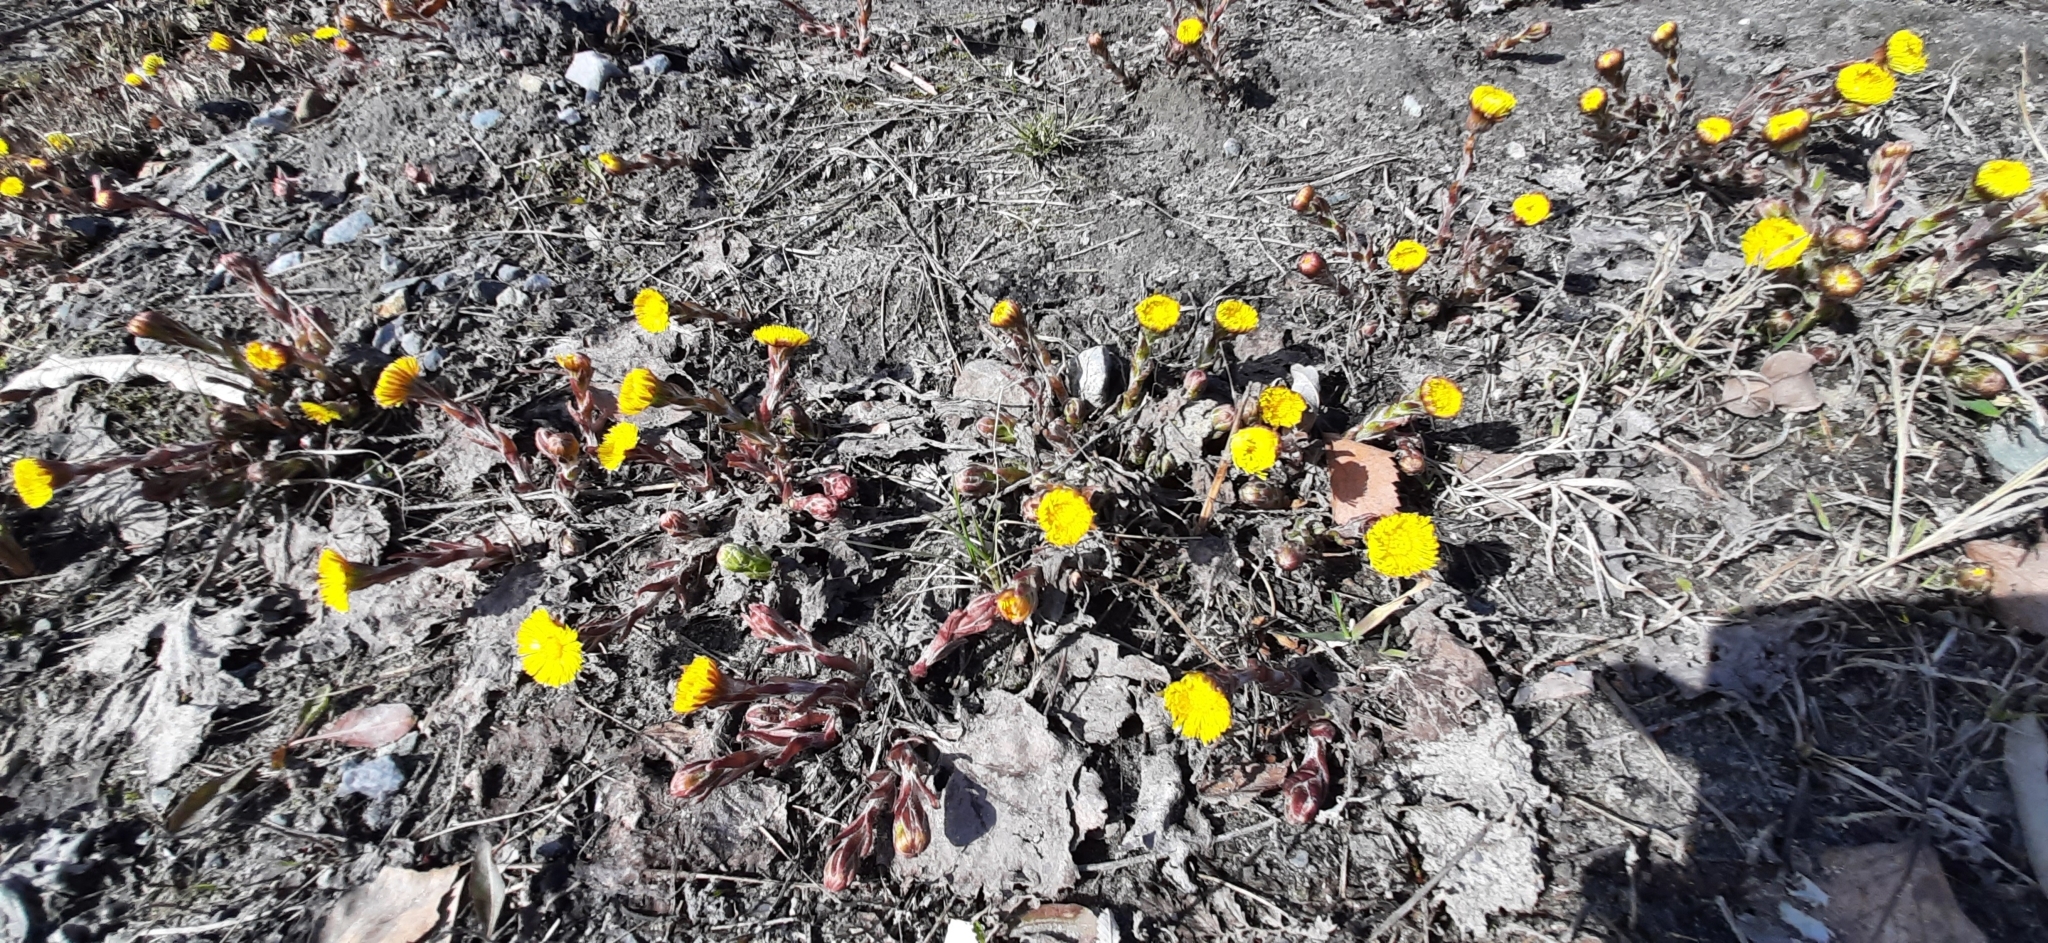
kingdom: Plantae
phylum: Tracheophyta
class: Magnoliopsida
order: Asterales
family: Asteraceae
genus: Tussilago
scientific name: Tussilago farfara
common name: Coltsfoot
